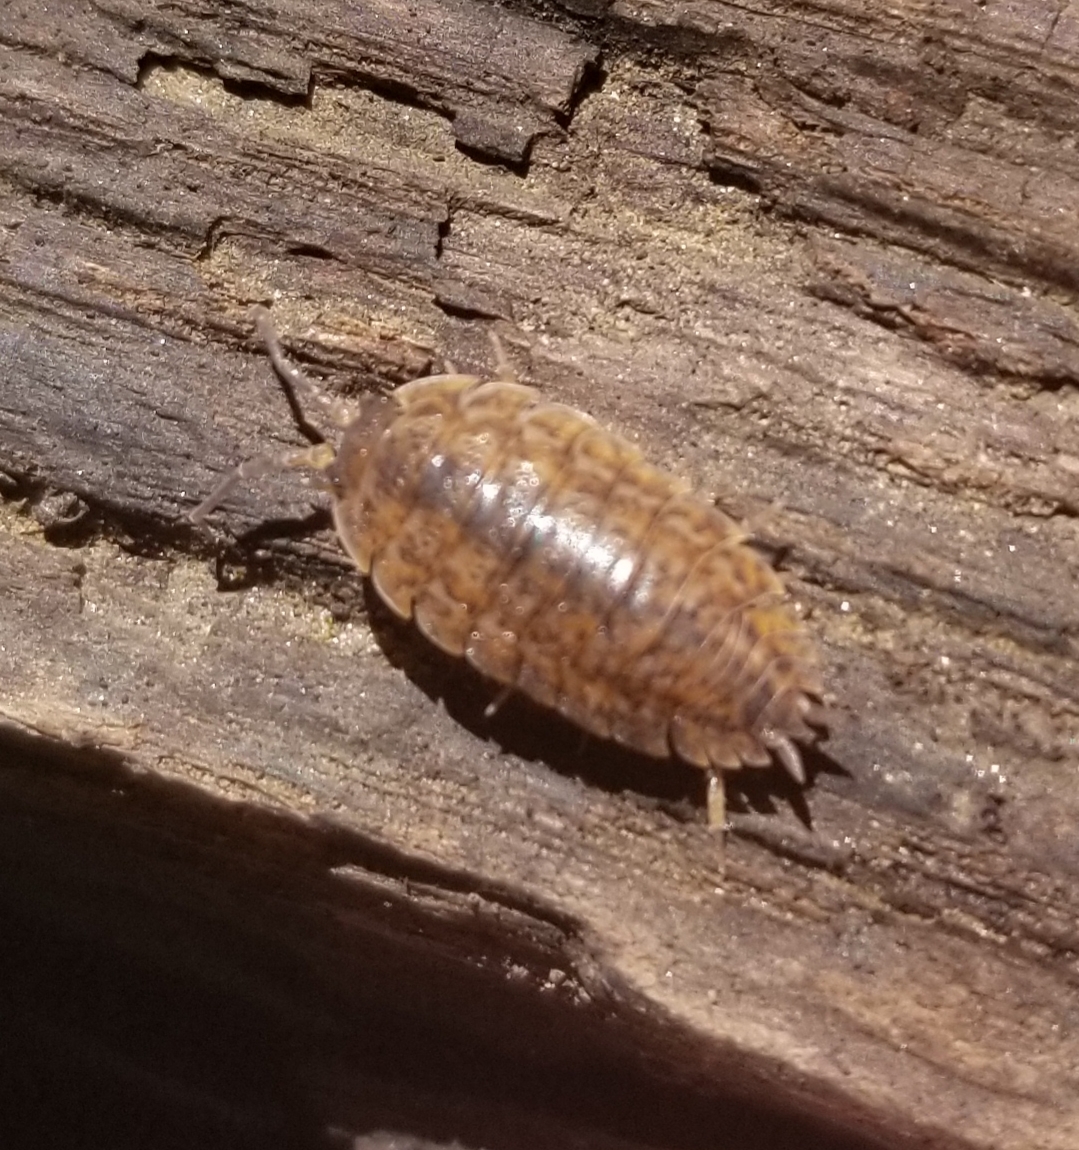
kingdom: Animalia
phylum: Arthropoda
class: Malacostraca
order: Isopoda
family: Trachelipodidae
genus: Trachelipus
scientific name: Trachelipus rathkii
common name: Isopod
